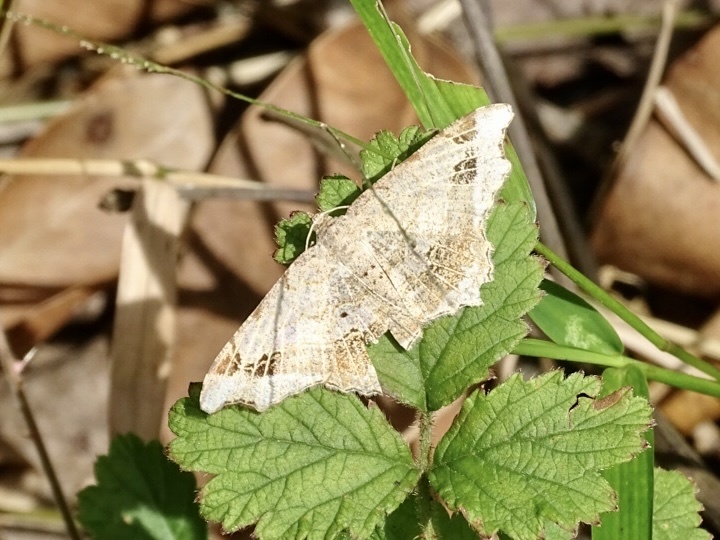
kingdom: Animalia
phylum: Arthropoda
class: Insecta
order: Lepidoptera
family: Geometridae
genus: Chiasmia
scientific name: Chiasmia emersaria
